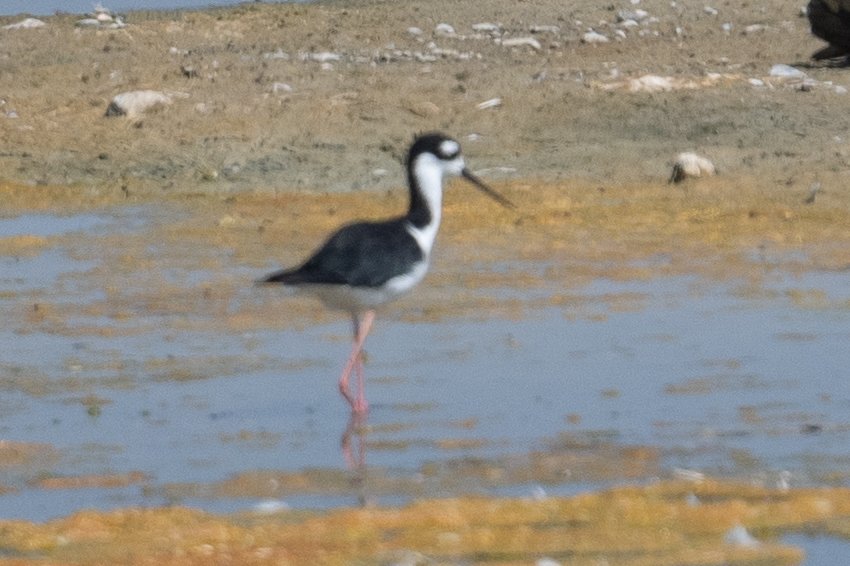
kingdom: Animalia
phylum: Chordata
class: Aves
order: Charadriiformes
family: Recurvirostridae
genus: Himantopus
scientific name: Himantopus mexicanus
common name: Black-necked stilt
